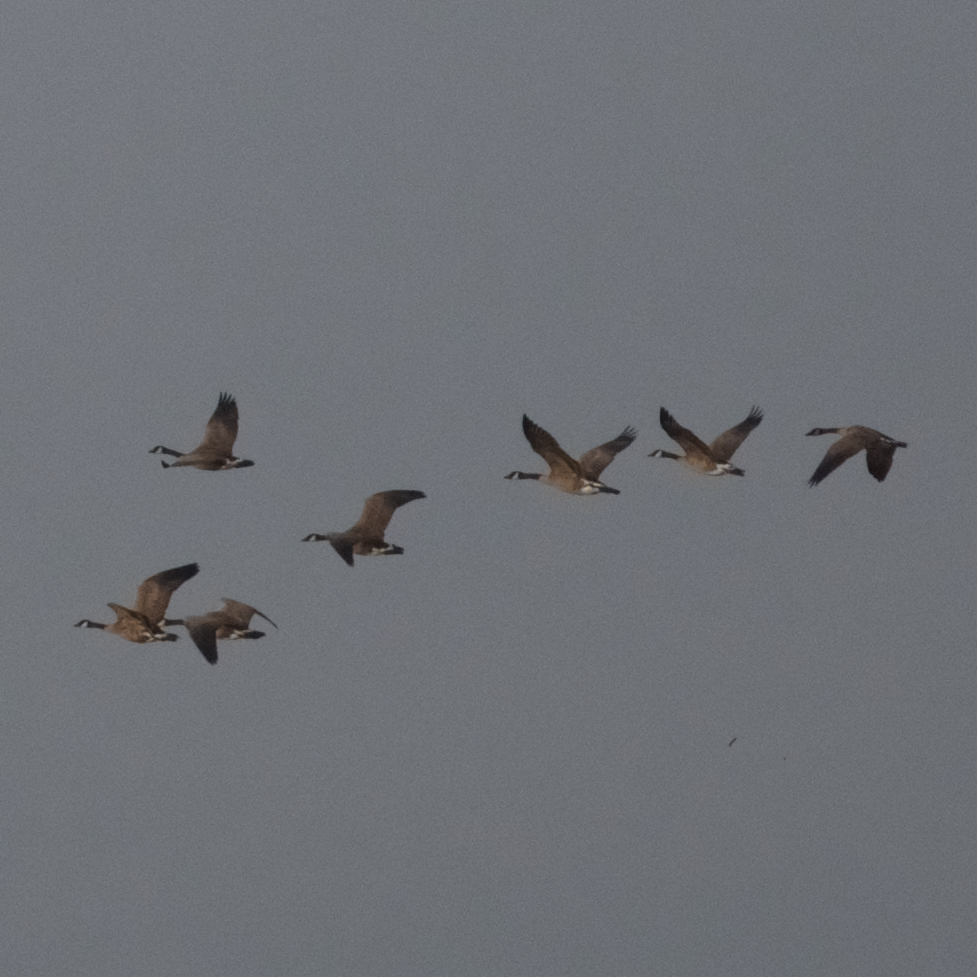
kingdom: Animalia
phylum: Chordata
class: Aves
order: Anseriformes
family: Anatidae
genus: Branta
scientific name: Branta canadensis
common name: Canada goose
